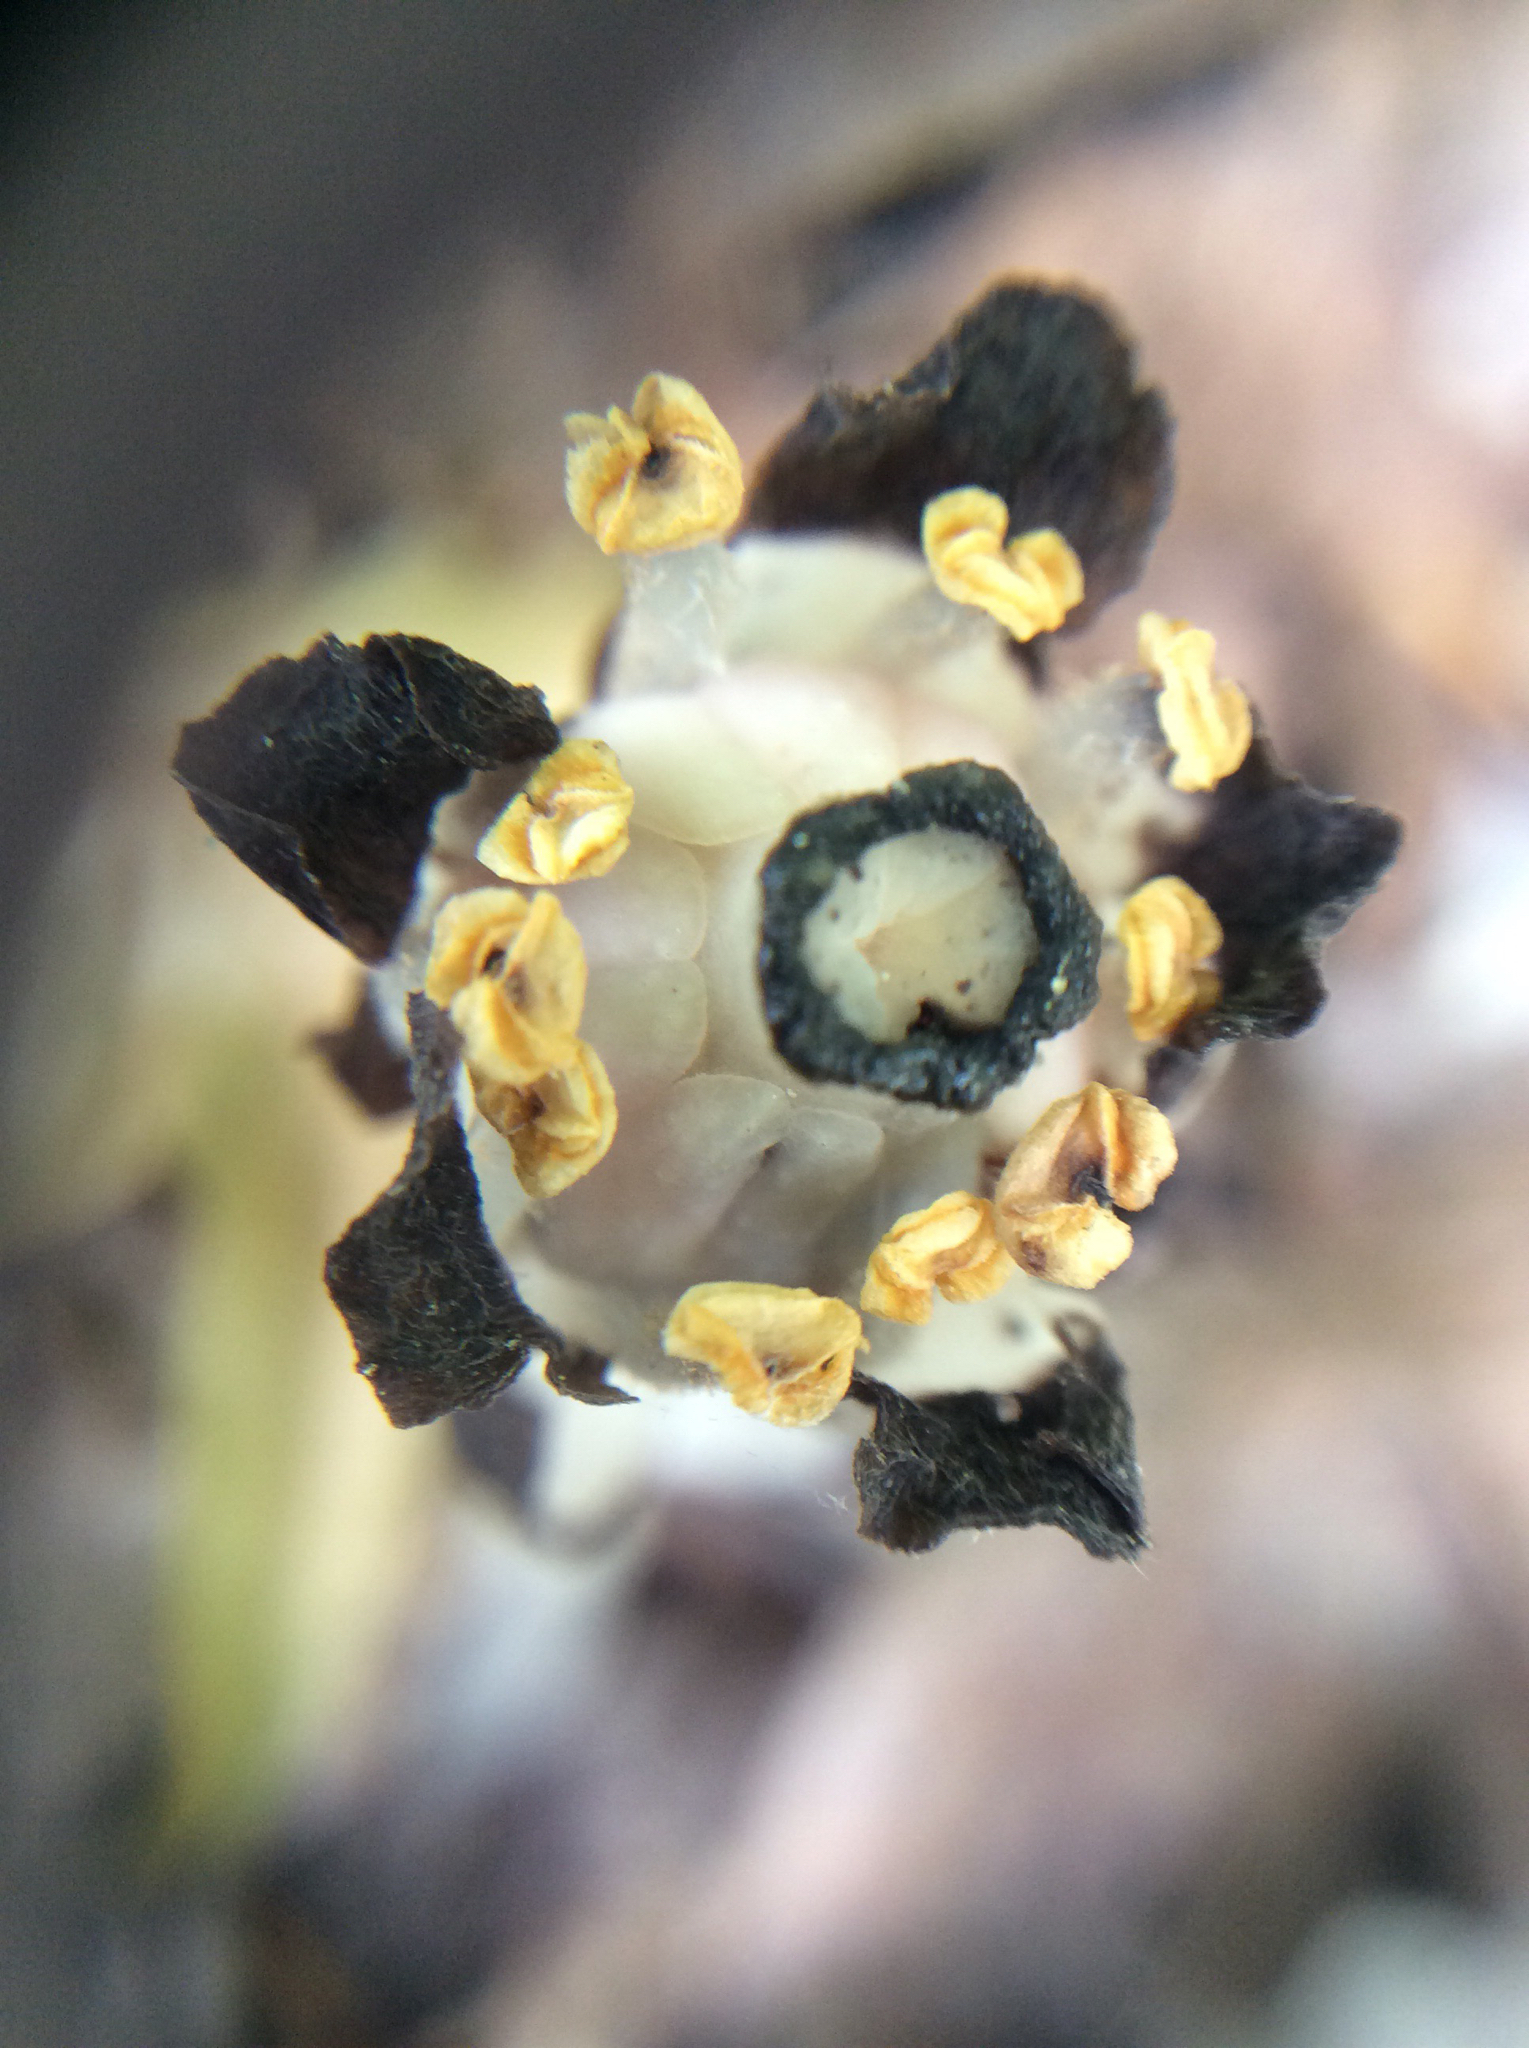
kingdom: Plantae
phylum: Tracheophyta
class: Magnoliopsida
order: Ericales
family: Ericaceae
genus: Monotropa
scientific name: Monotropa uniflora
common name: Convulsion root
